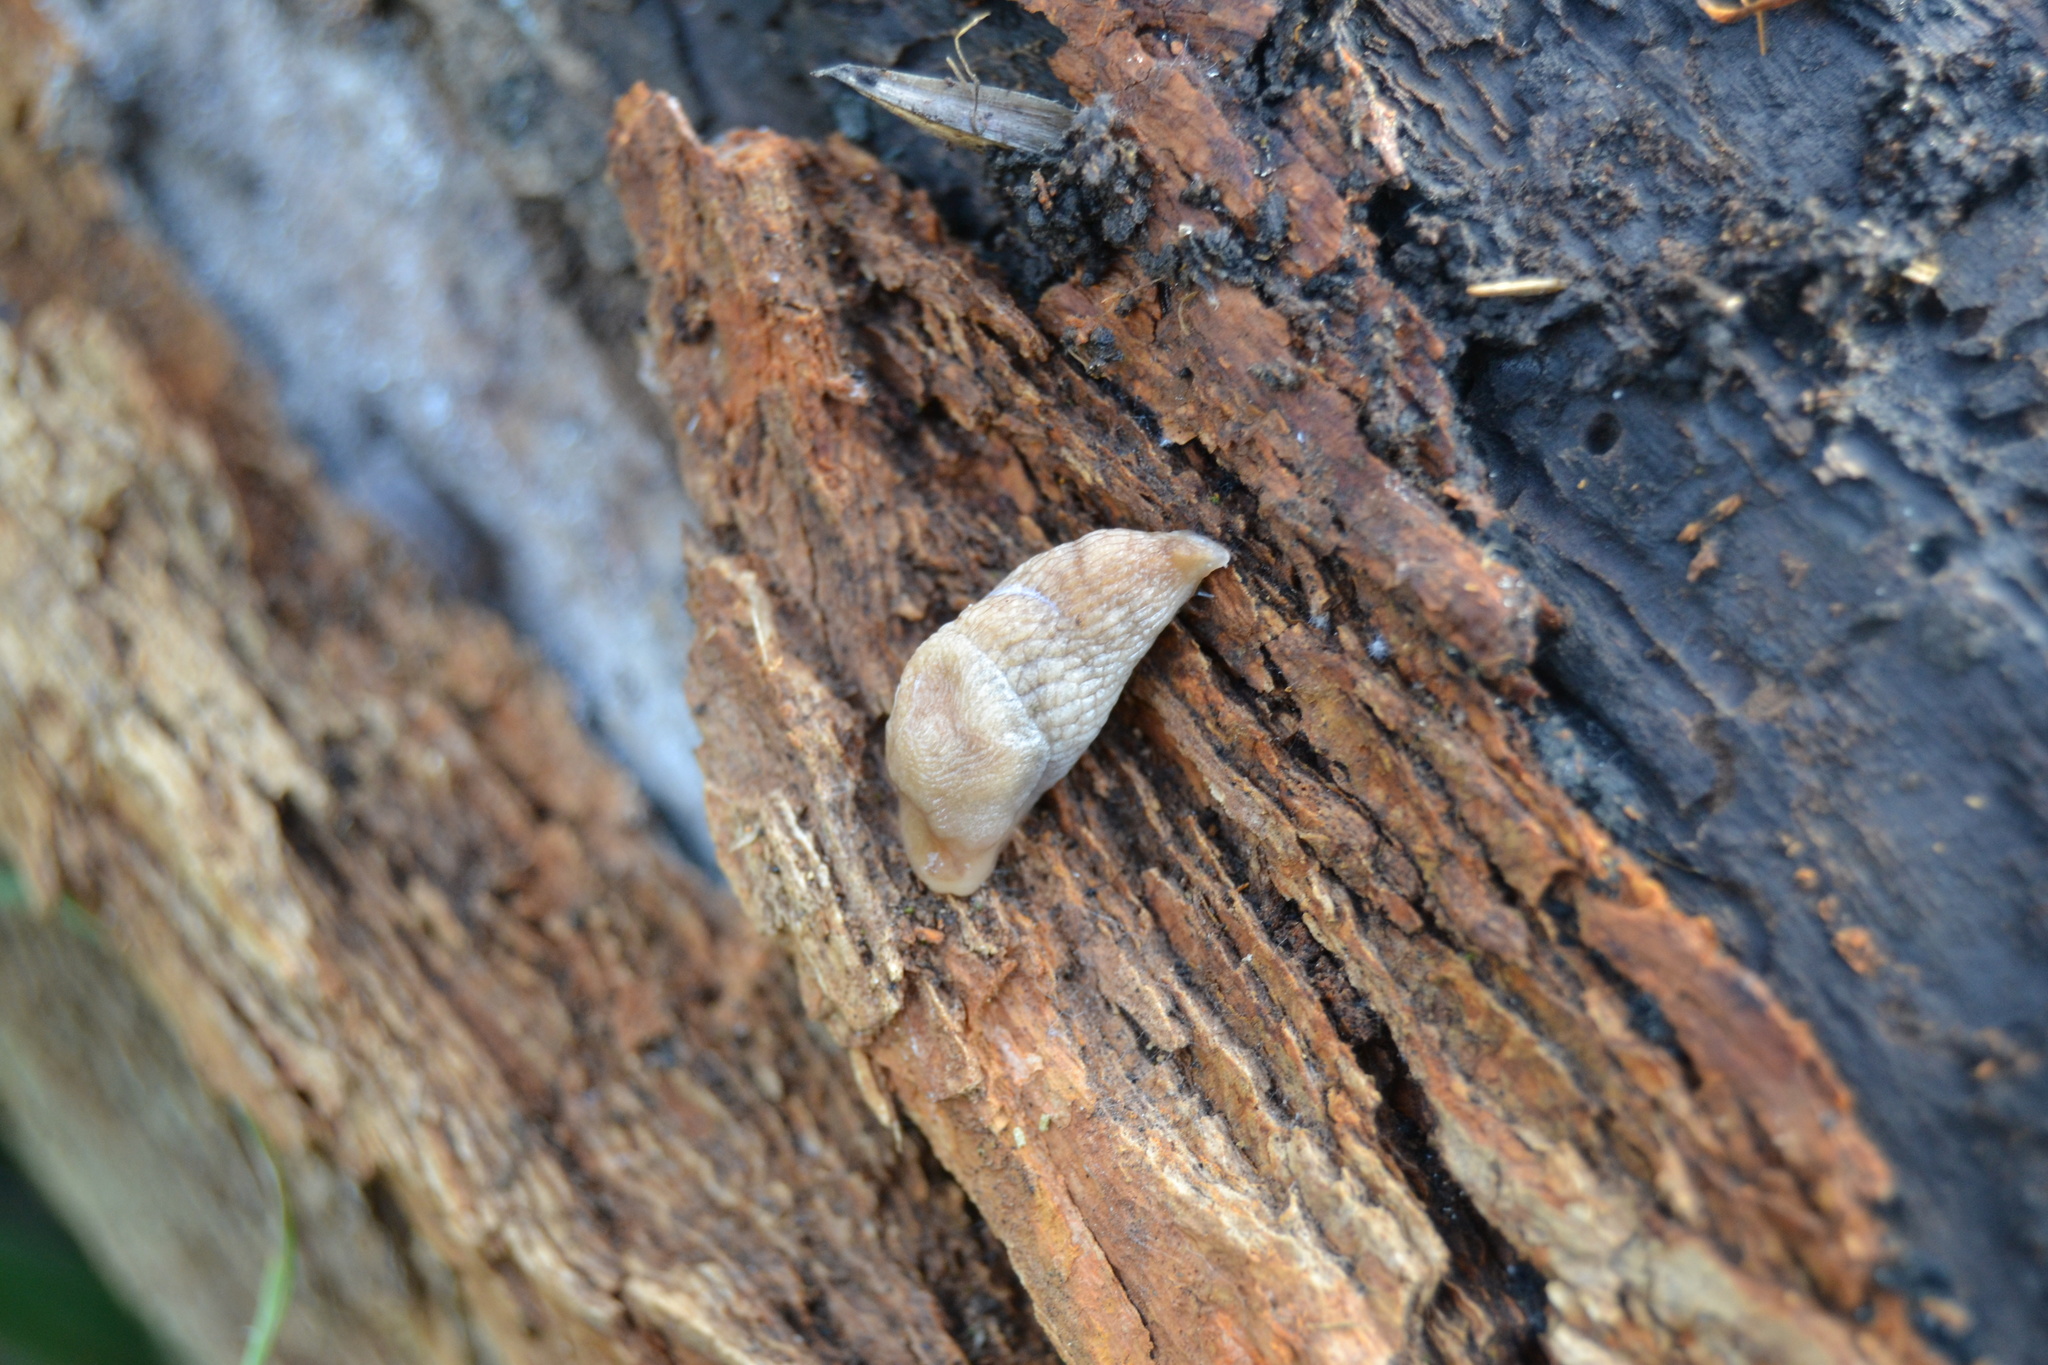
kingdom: Animalia
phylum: Mollusca
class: Gastropoda
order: Stylommatophora
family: Agriolimacidae
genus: Deroceras
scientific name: Deroceras reticulatum
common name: Gray field slug
